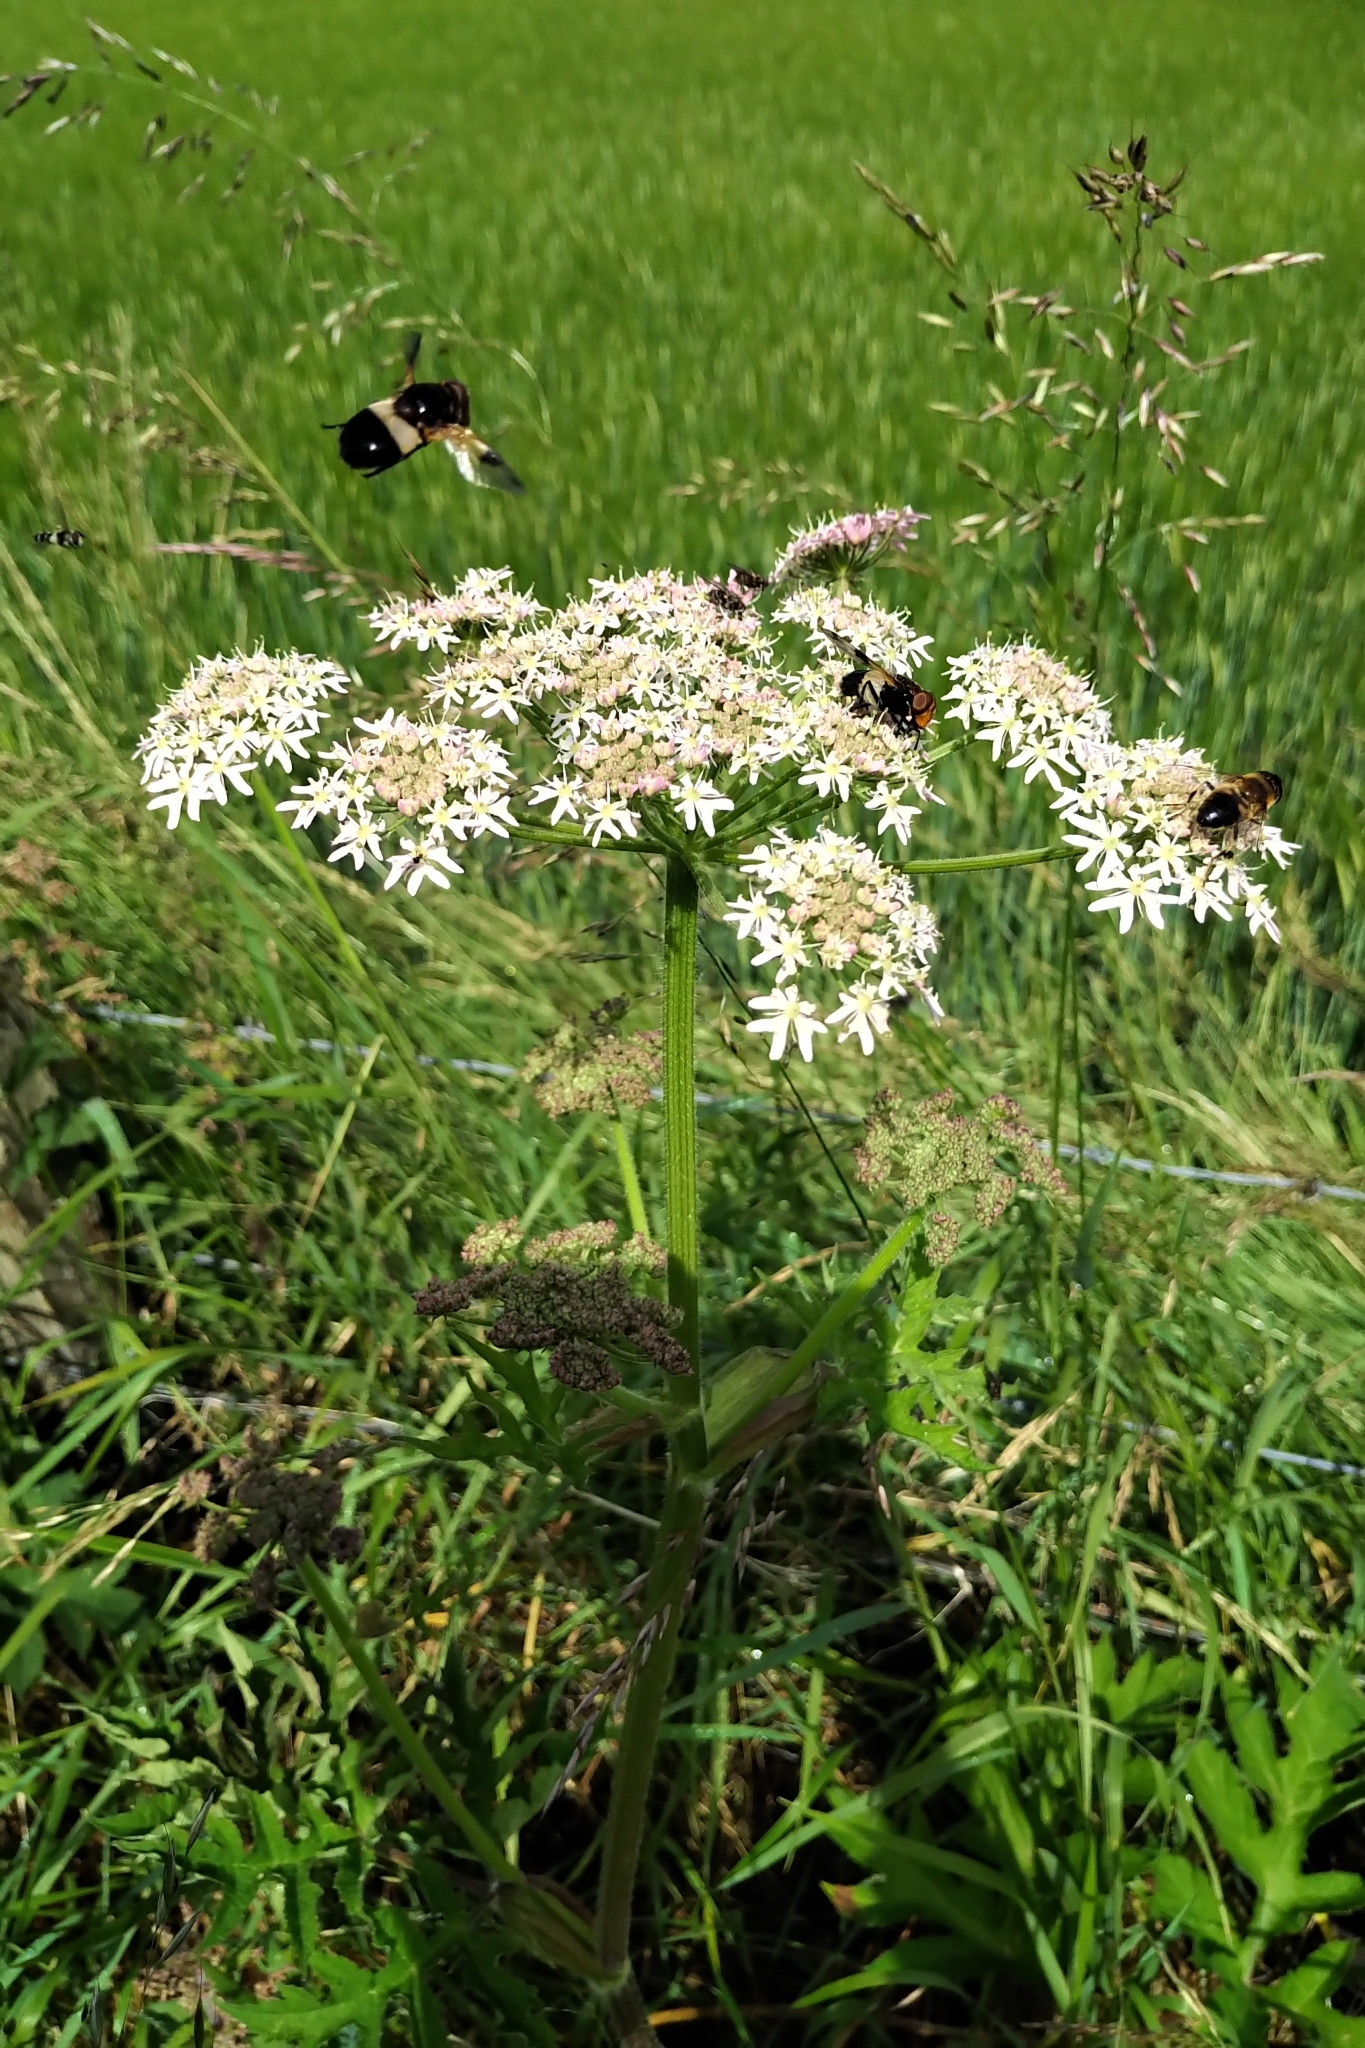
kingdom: Animalia
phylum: Arthropoda
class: Insecta
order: Diptera
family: Syrphidae
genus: Volucella
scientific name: Volucella pellucens
